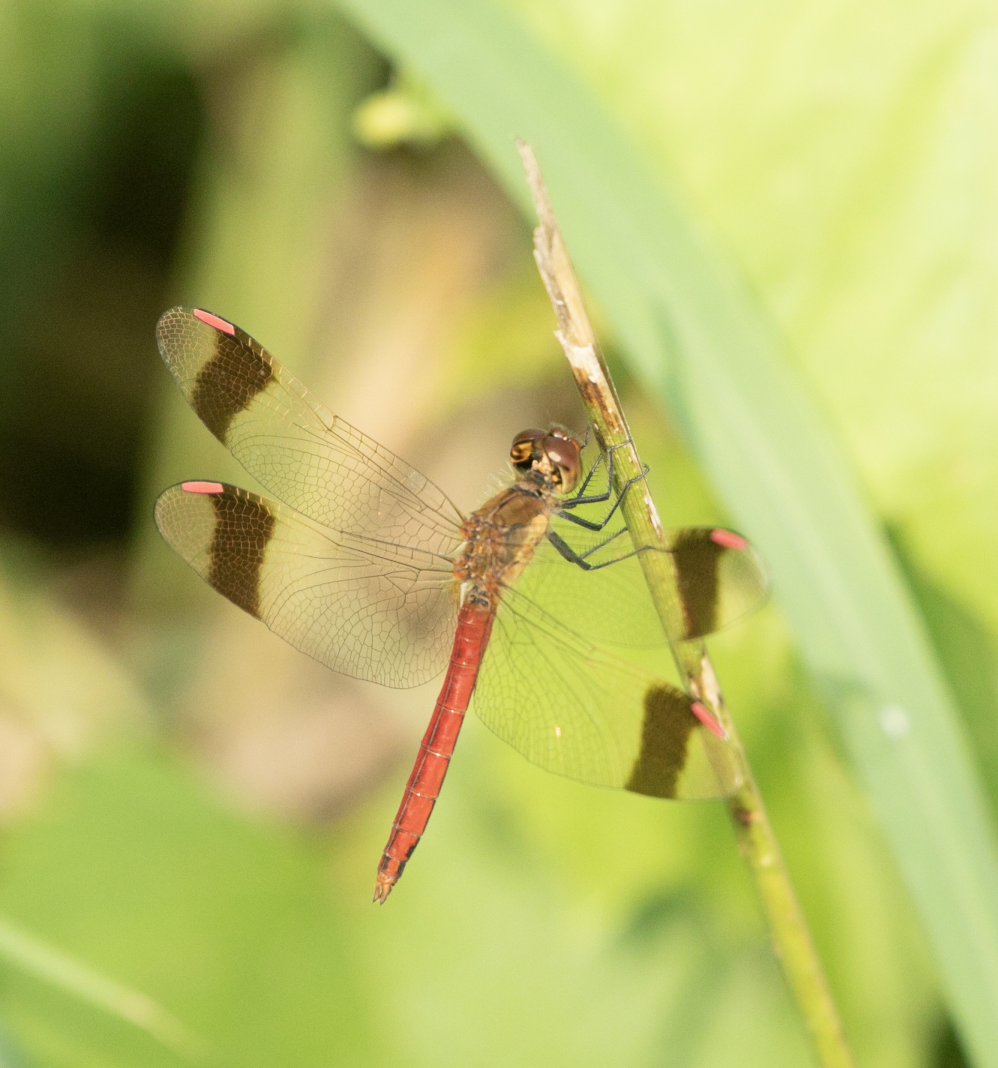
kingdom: Animalia
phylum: Arthropoda
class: Insecta
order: Odonata
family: Libellulidae
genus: Sympetrum
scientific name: Sympetrum pedemontanum
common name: Banded darter
